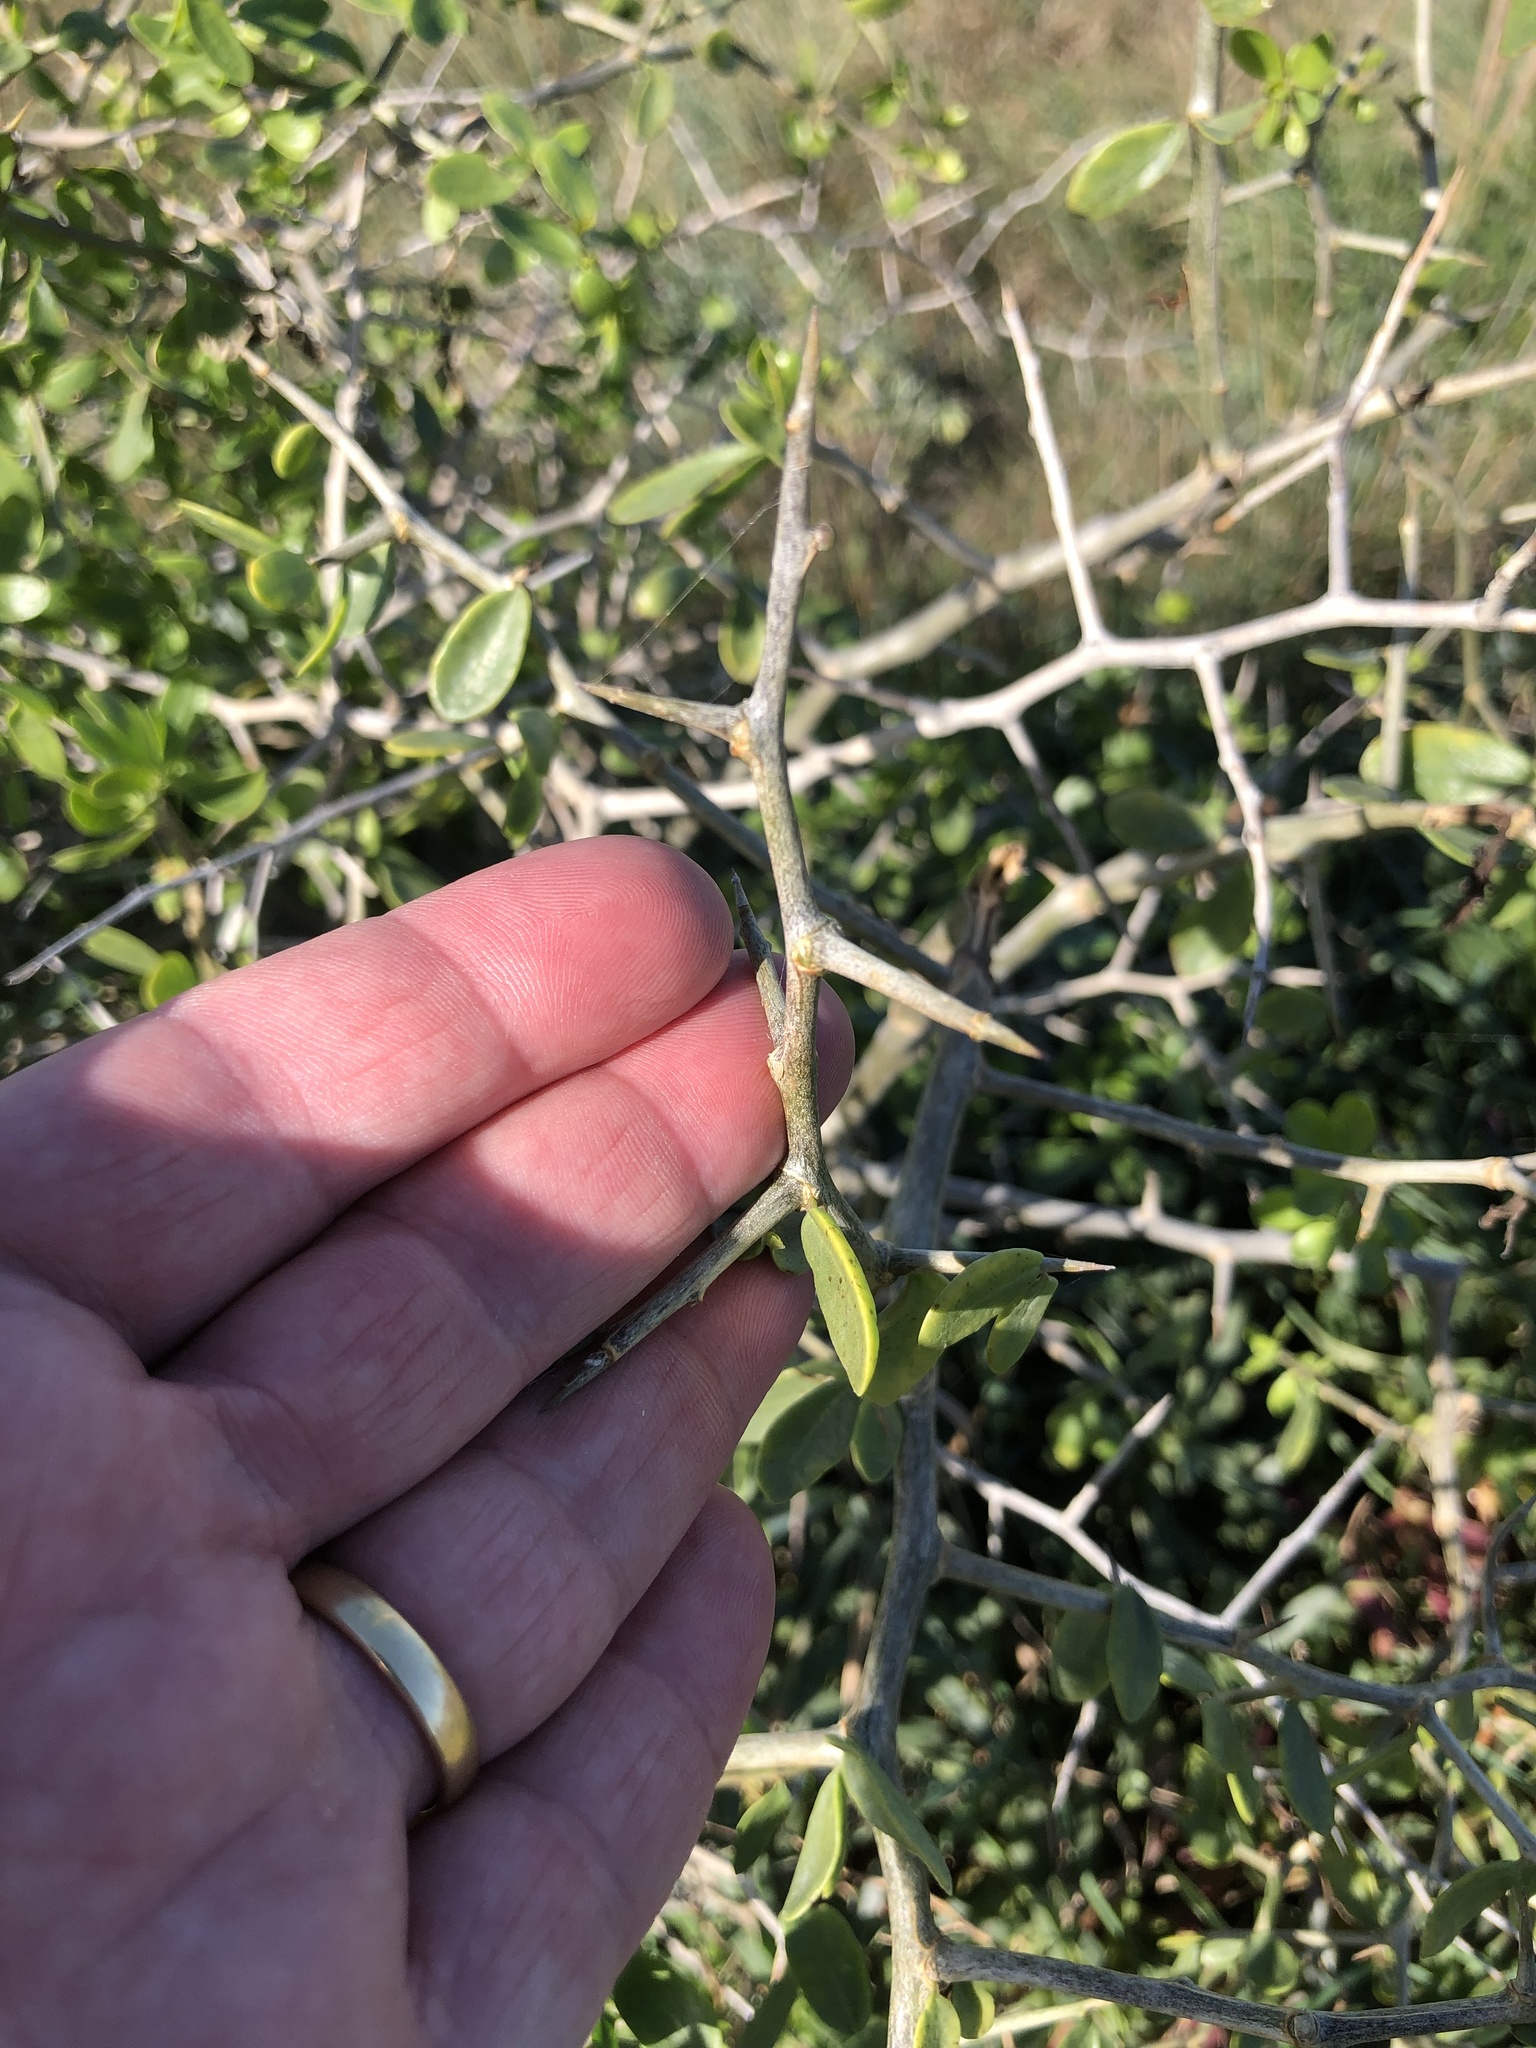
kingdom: Plantae
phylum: Tracheophyta
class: Magnoliopsida
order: Solanales
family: Solanaceae
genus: Lycium
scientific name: Lycium ferocissimum
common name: African boxthorn
